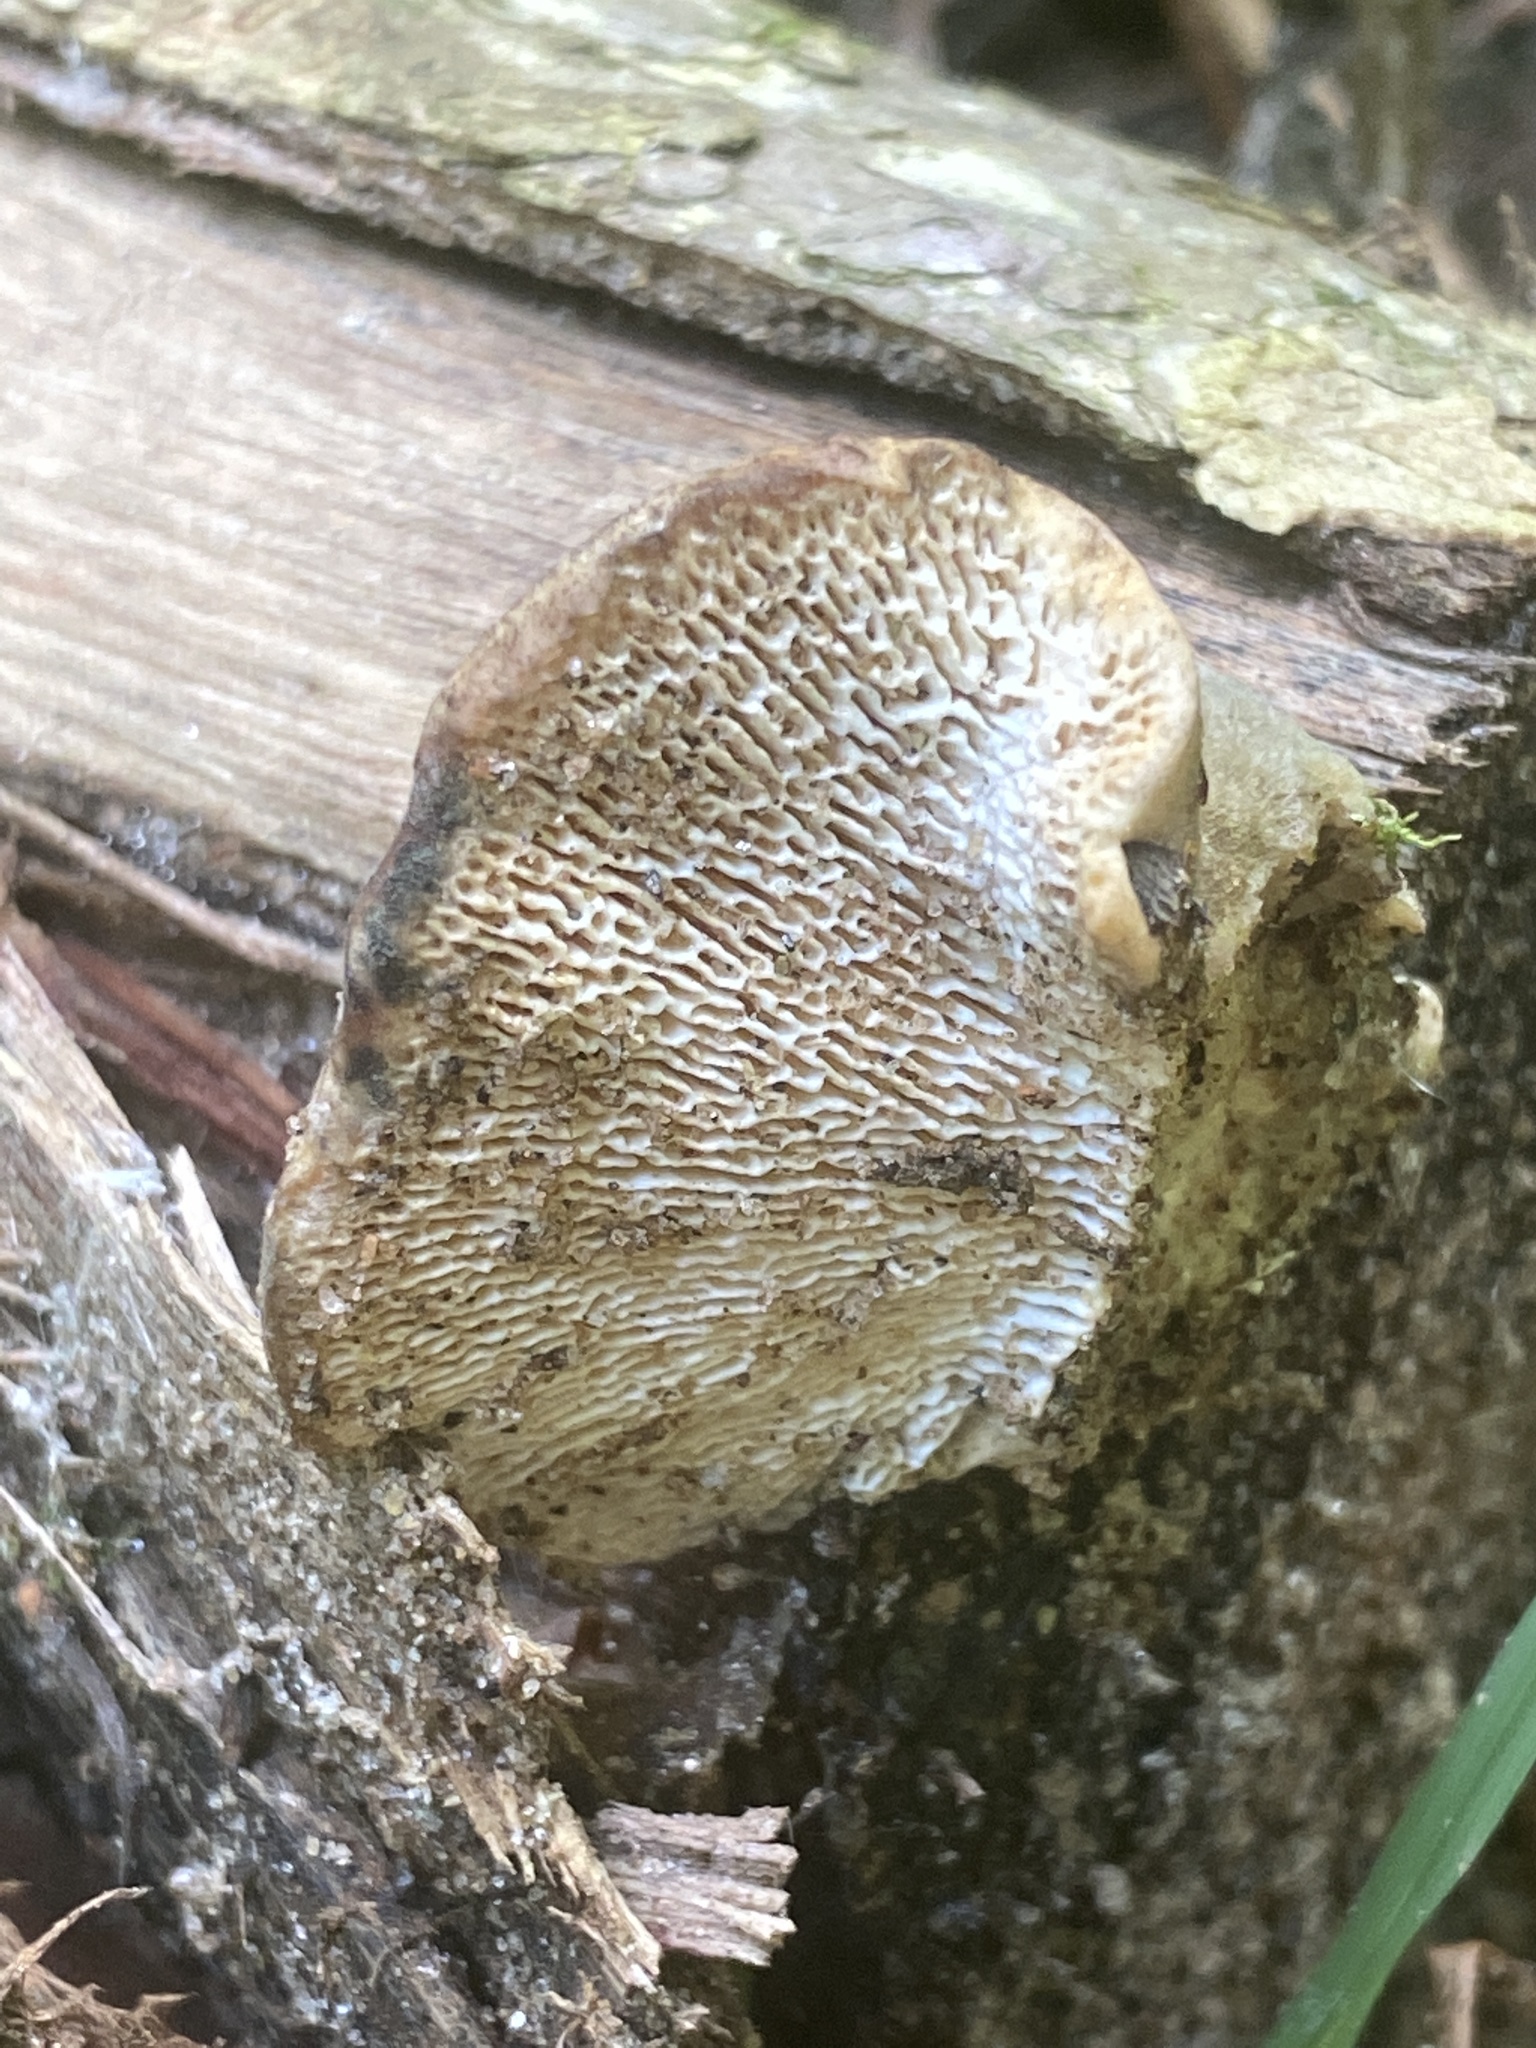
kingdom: Fungi
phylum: Basidiomycota
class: Agaricomycetes
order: Polyporales
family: Polyporaceae
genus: Trametes
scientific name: Trametes gibbosa
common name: Lumpy bracket
